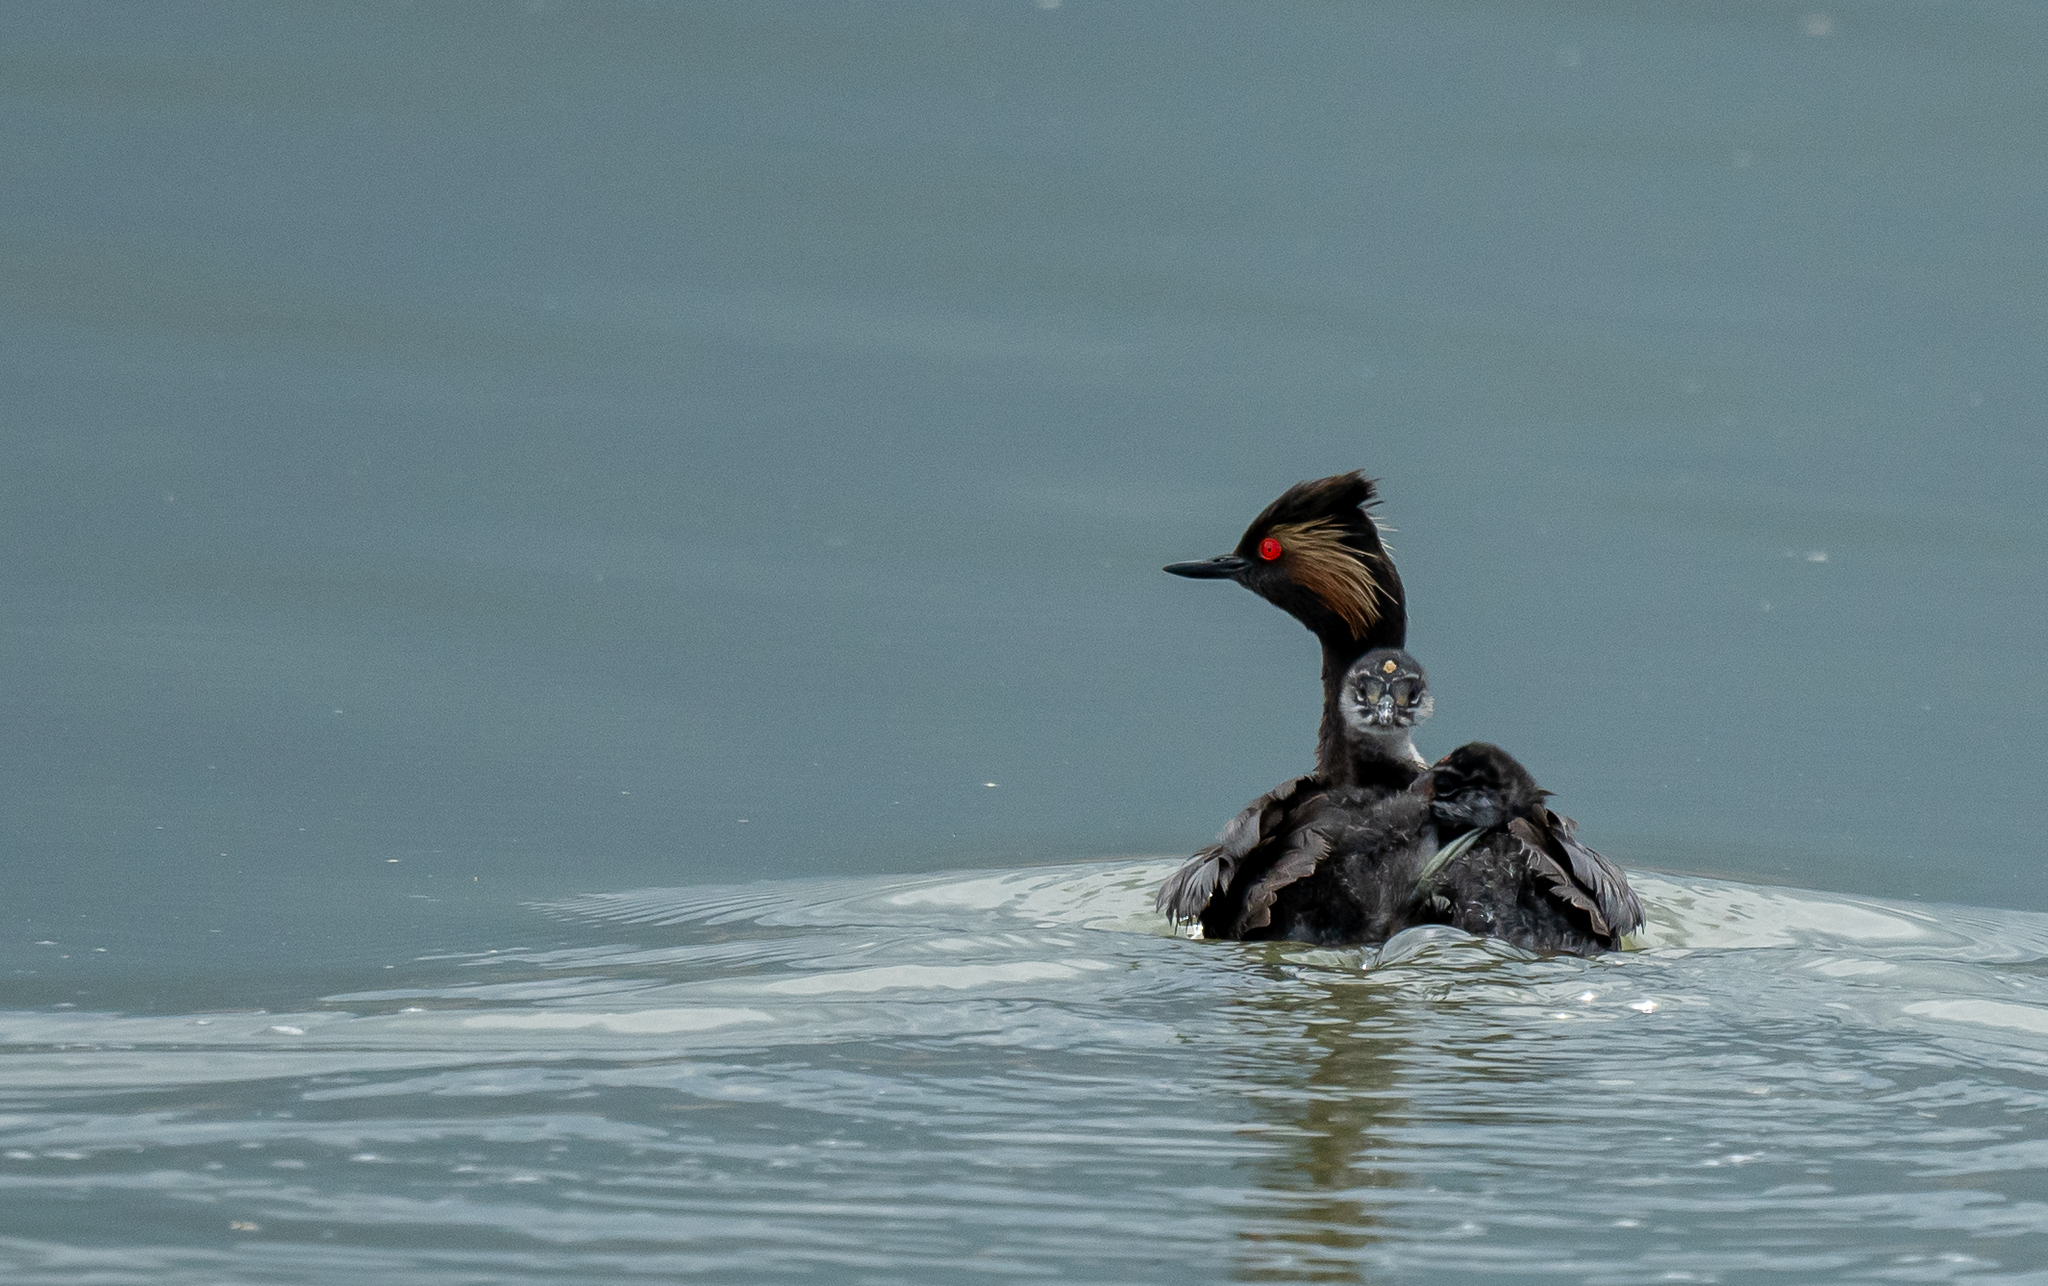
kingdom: Animalia
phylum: Chordata
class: Aves
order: Podicipediformes
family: Podicipedidae
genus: Podiceps
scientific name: Podiceps nigricollis
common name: Black-necked grebe
